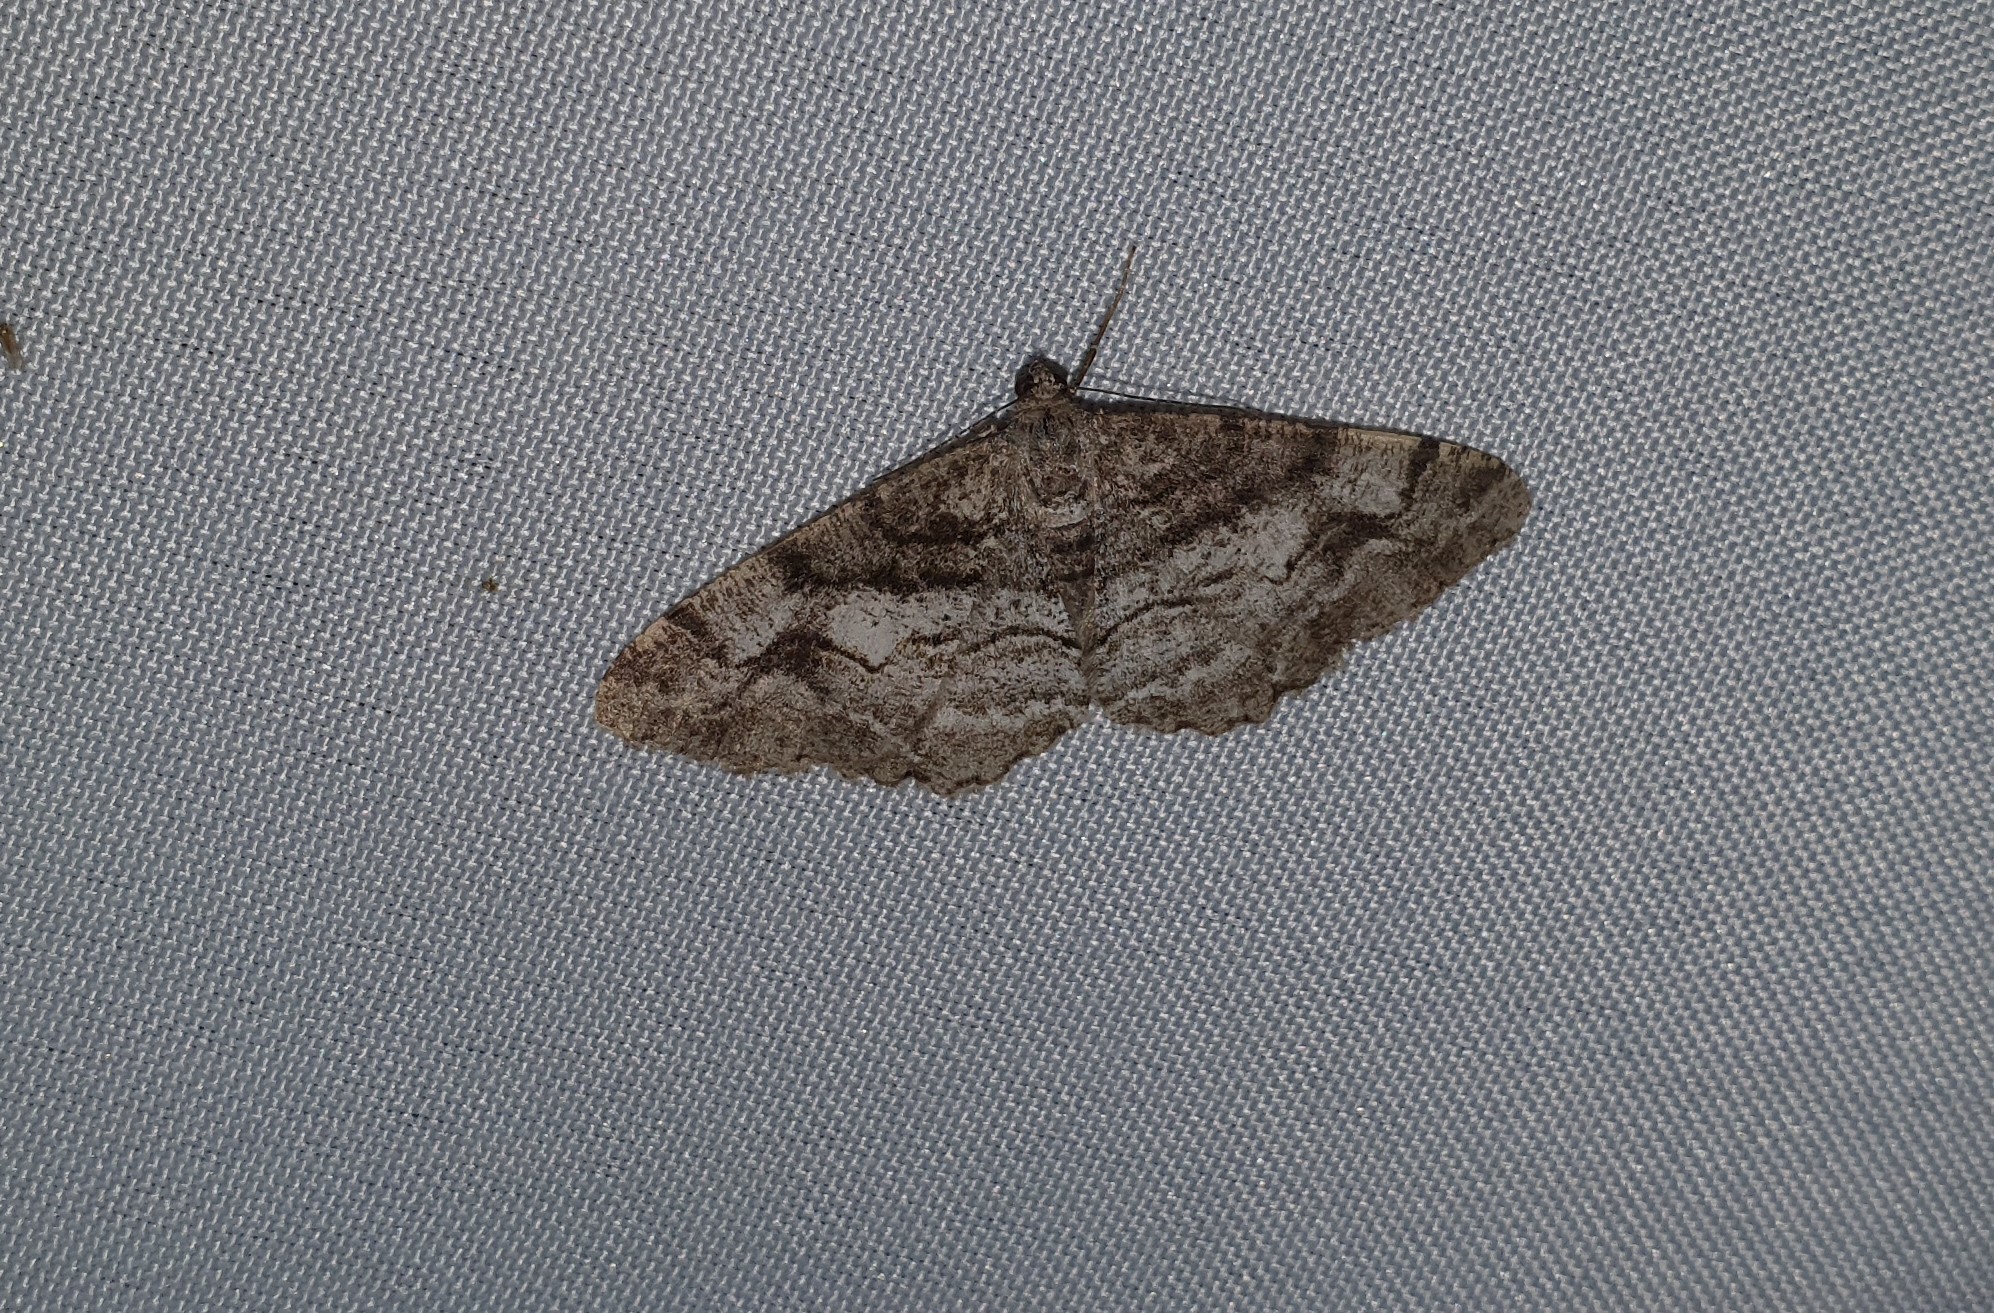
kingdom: Animalia
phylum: Arthropoda
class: Insecta
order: Lepidoptera
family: Geometridae
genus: Alcis
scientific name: Alcis repandata
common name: Mottled beauty
